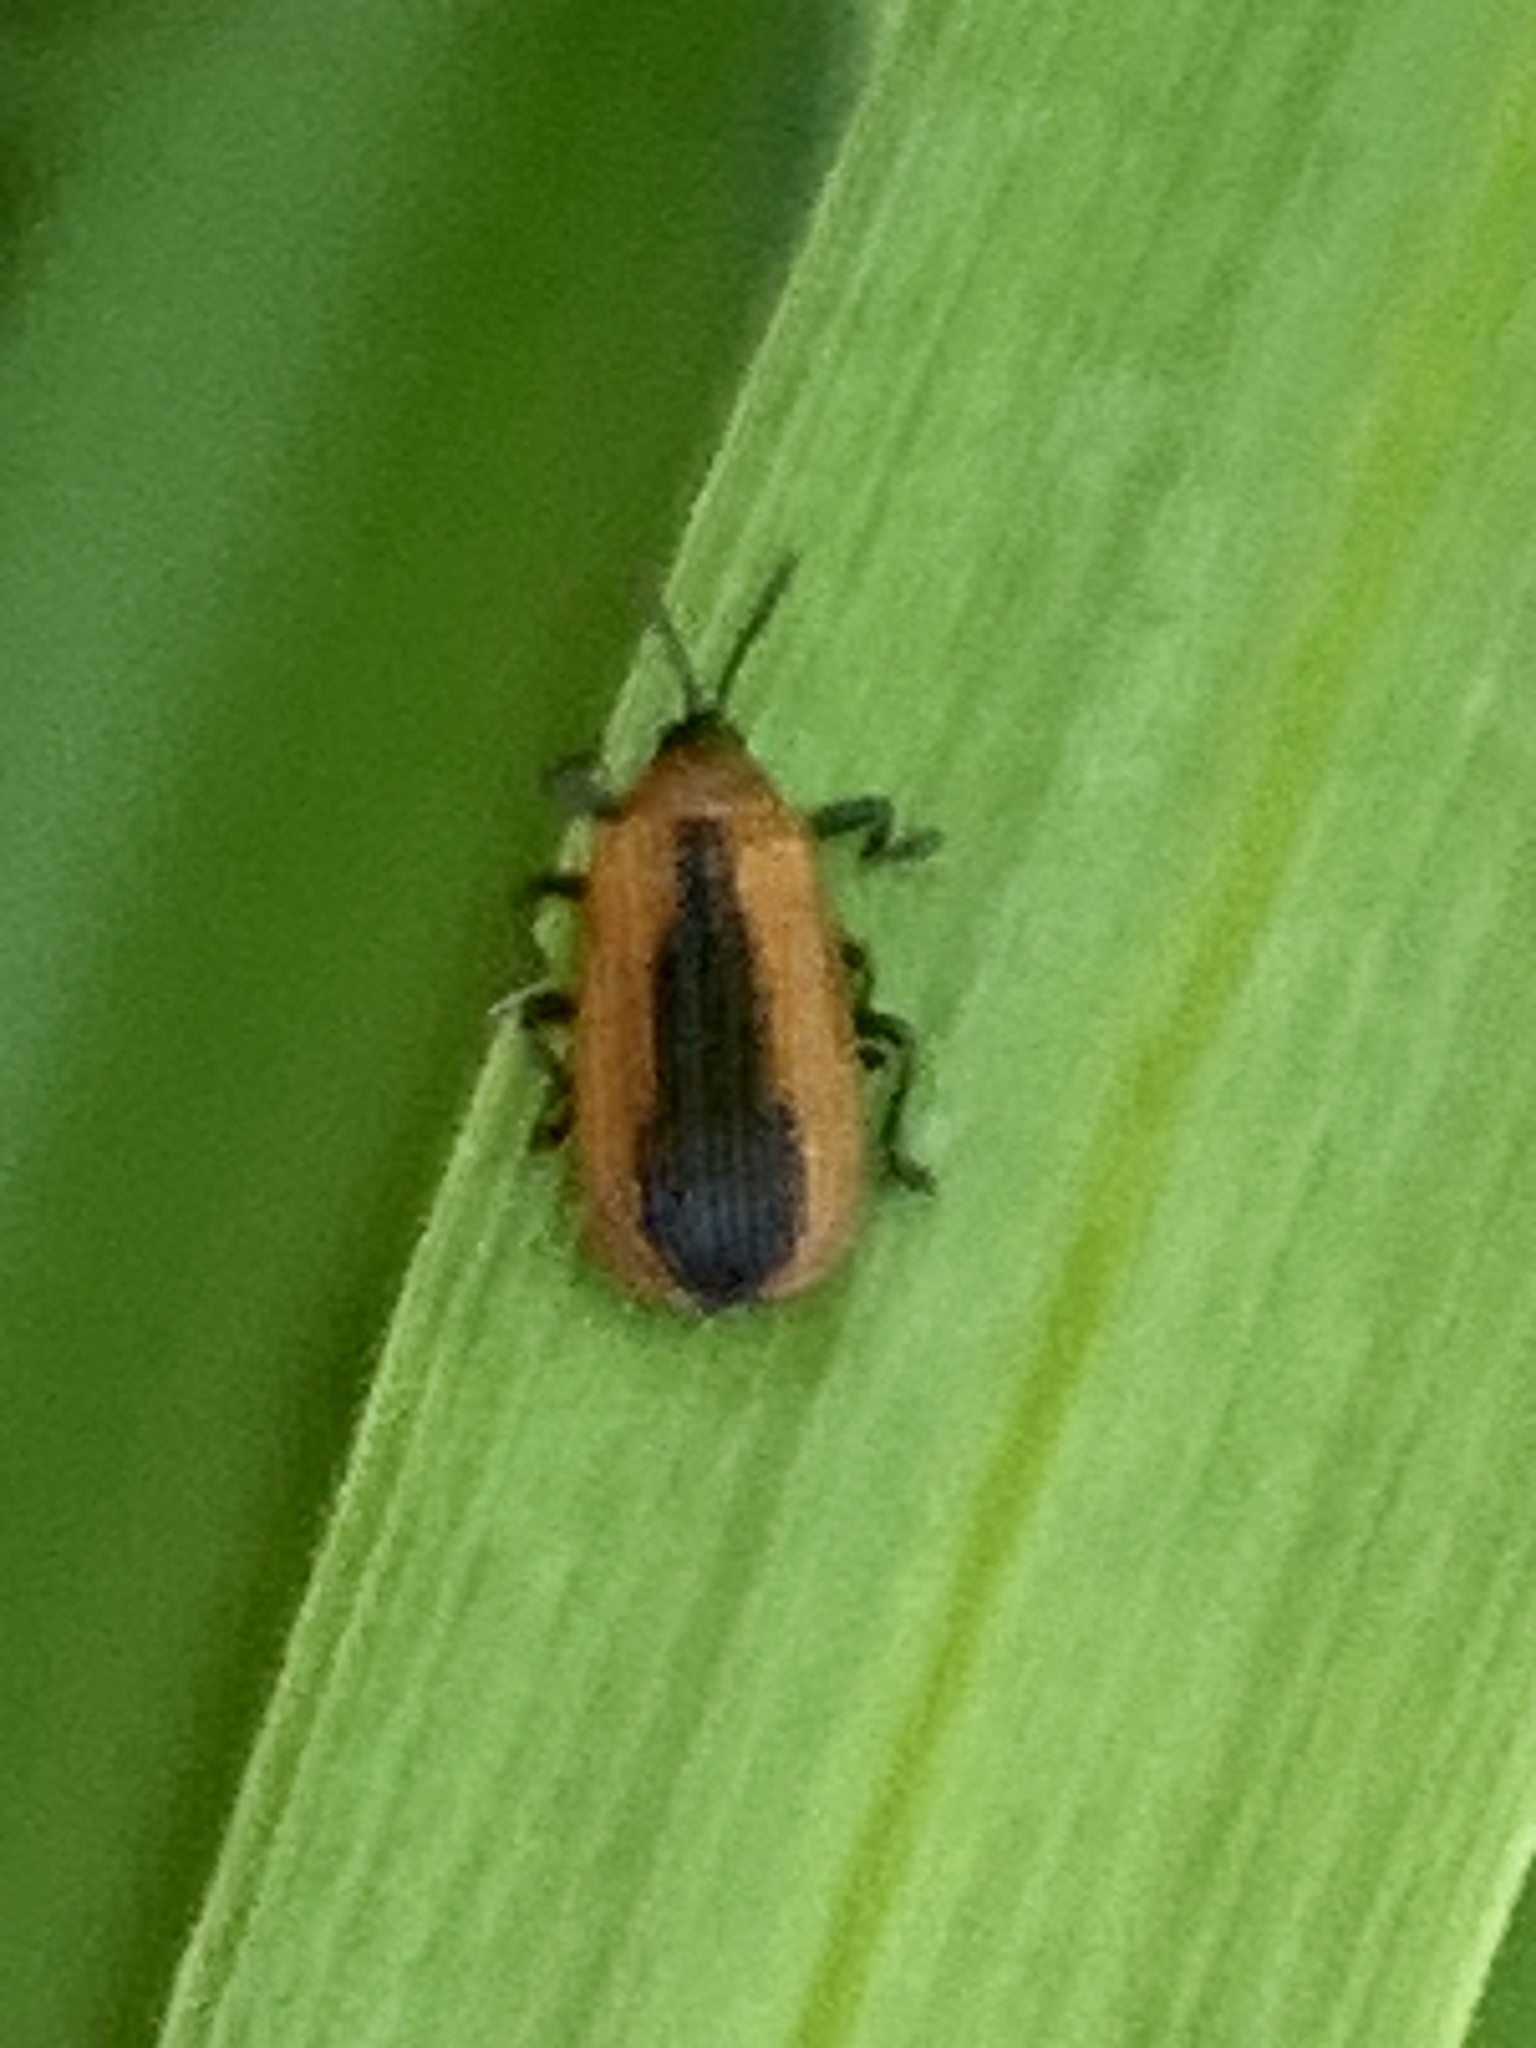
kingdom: Animalia
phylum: Arthropoda
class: Insecta
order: Coleoptera
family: Chrysomelidae
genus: Odontota
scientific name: Odontota dorsalis
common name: Locust leaf-miner beetle
